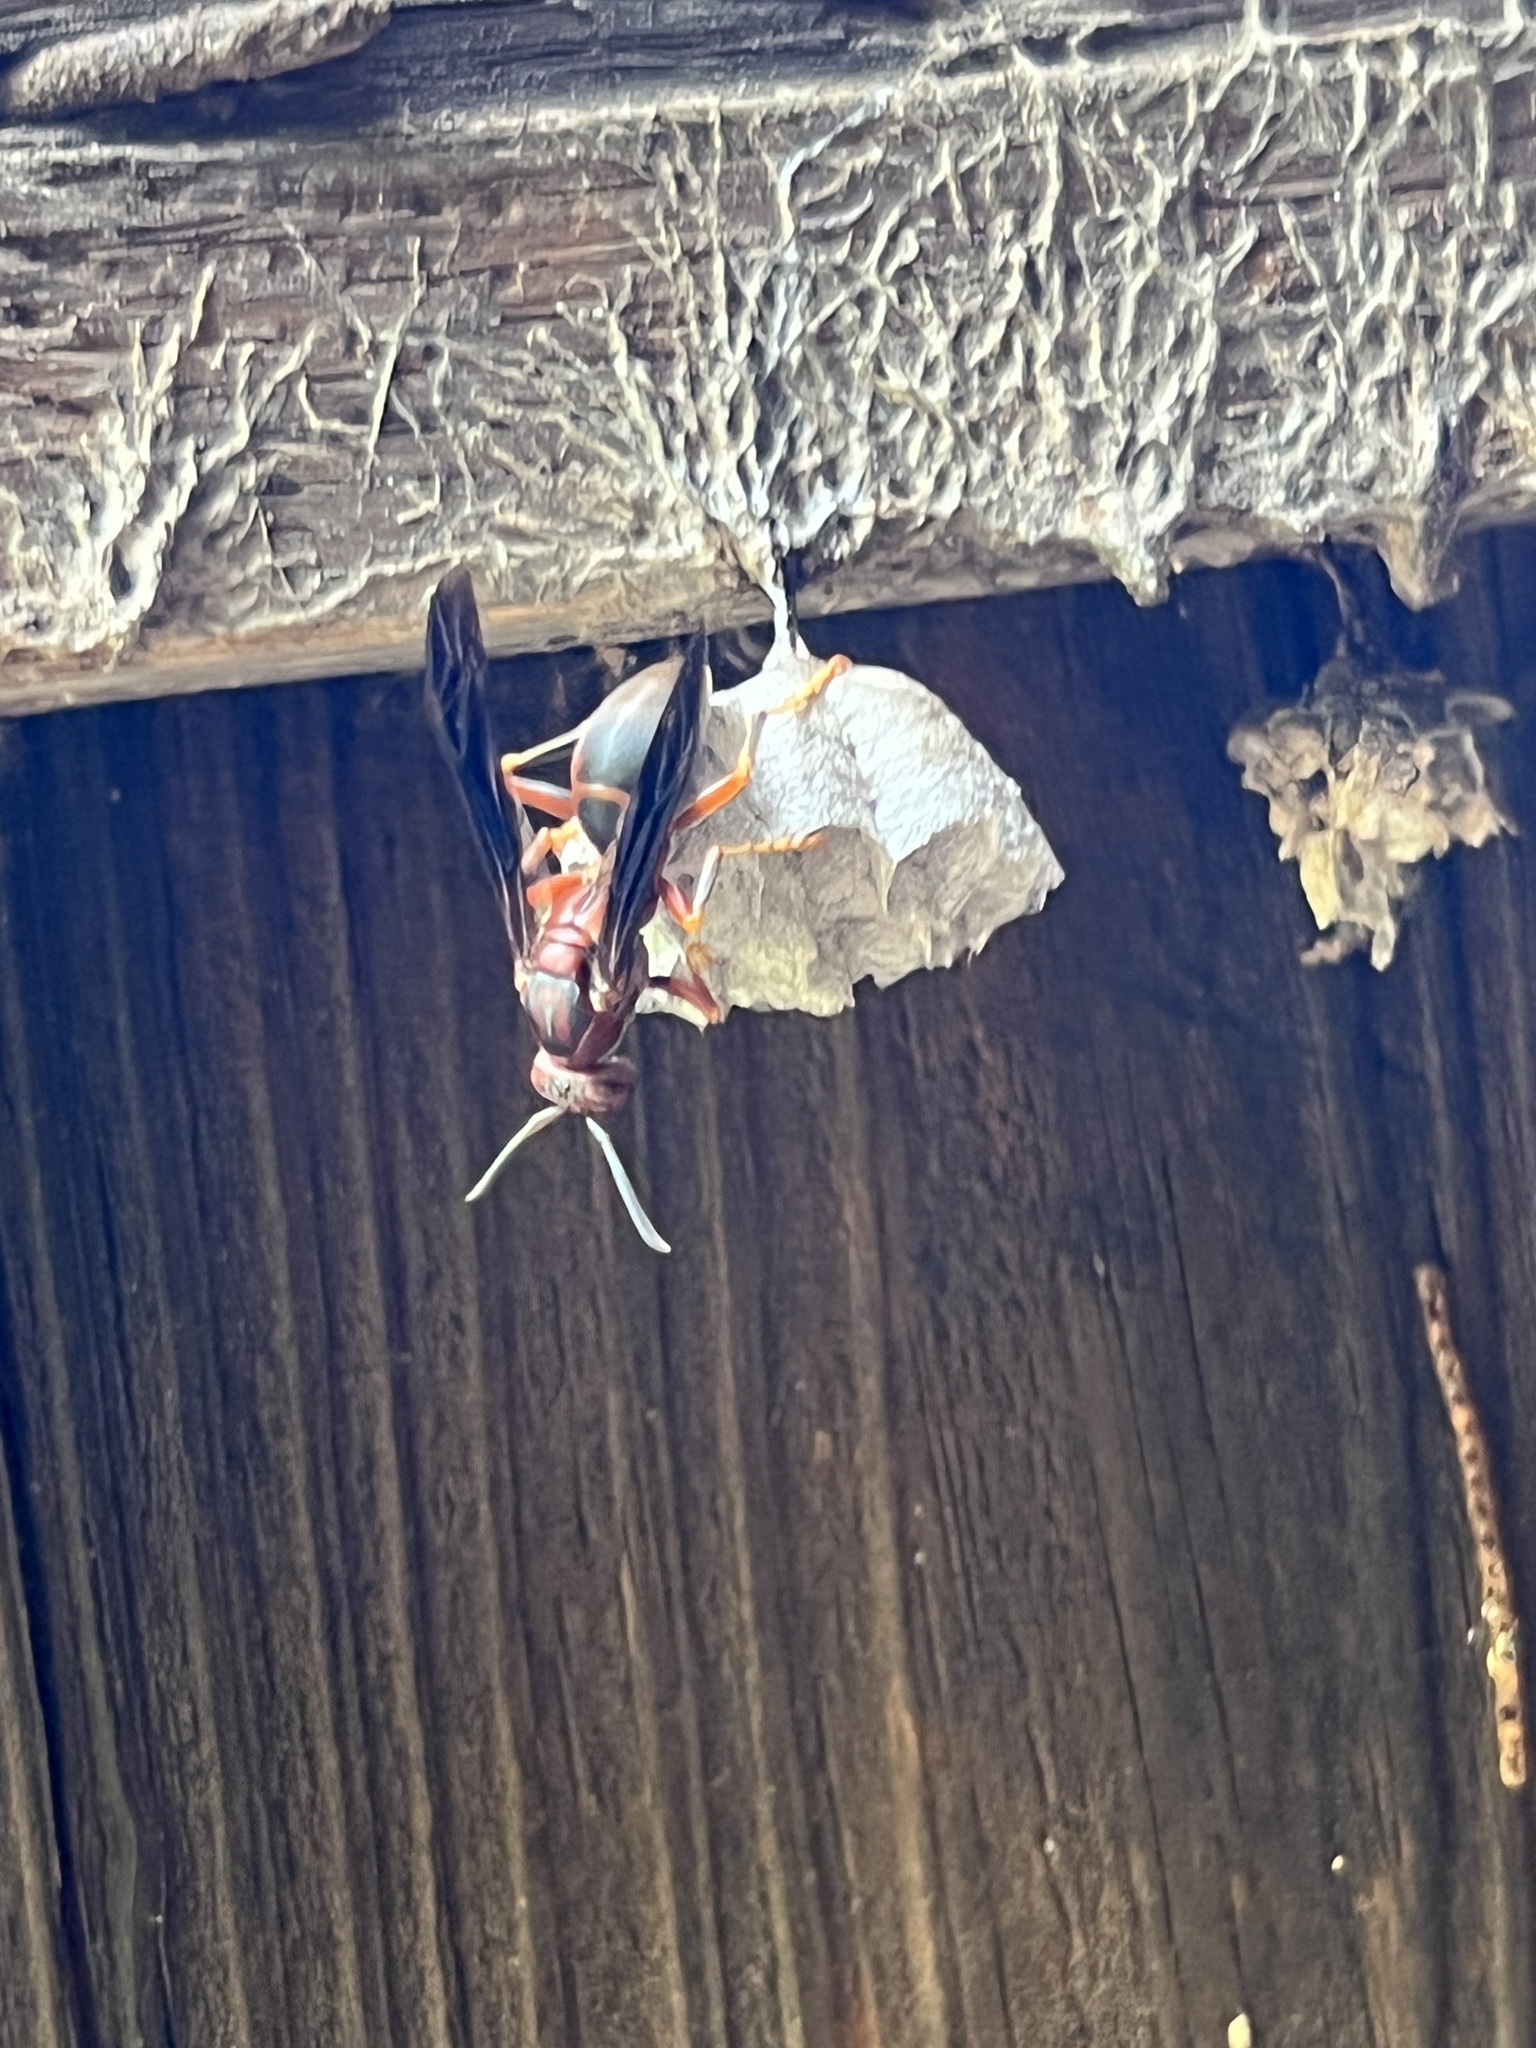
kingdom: Animalia
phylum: Arthropoda
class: Insecta
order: Hymenoptera
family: Eumenidae
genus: Polistes
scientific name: Polistes metricus
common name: Metric paper wasp
